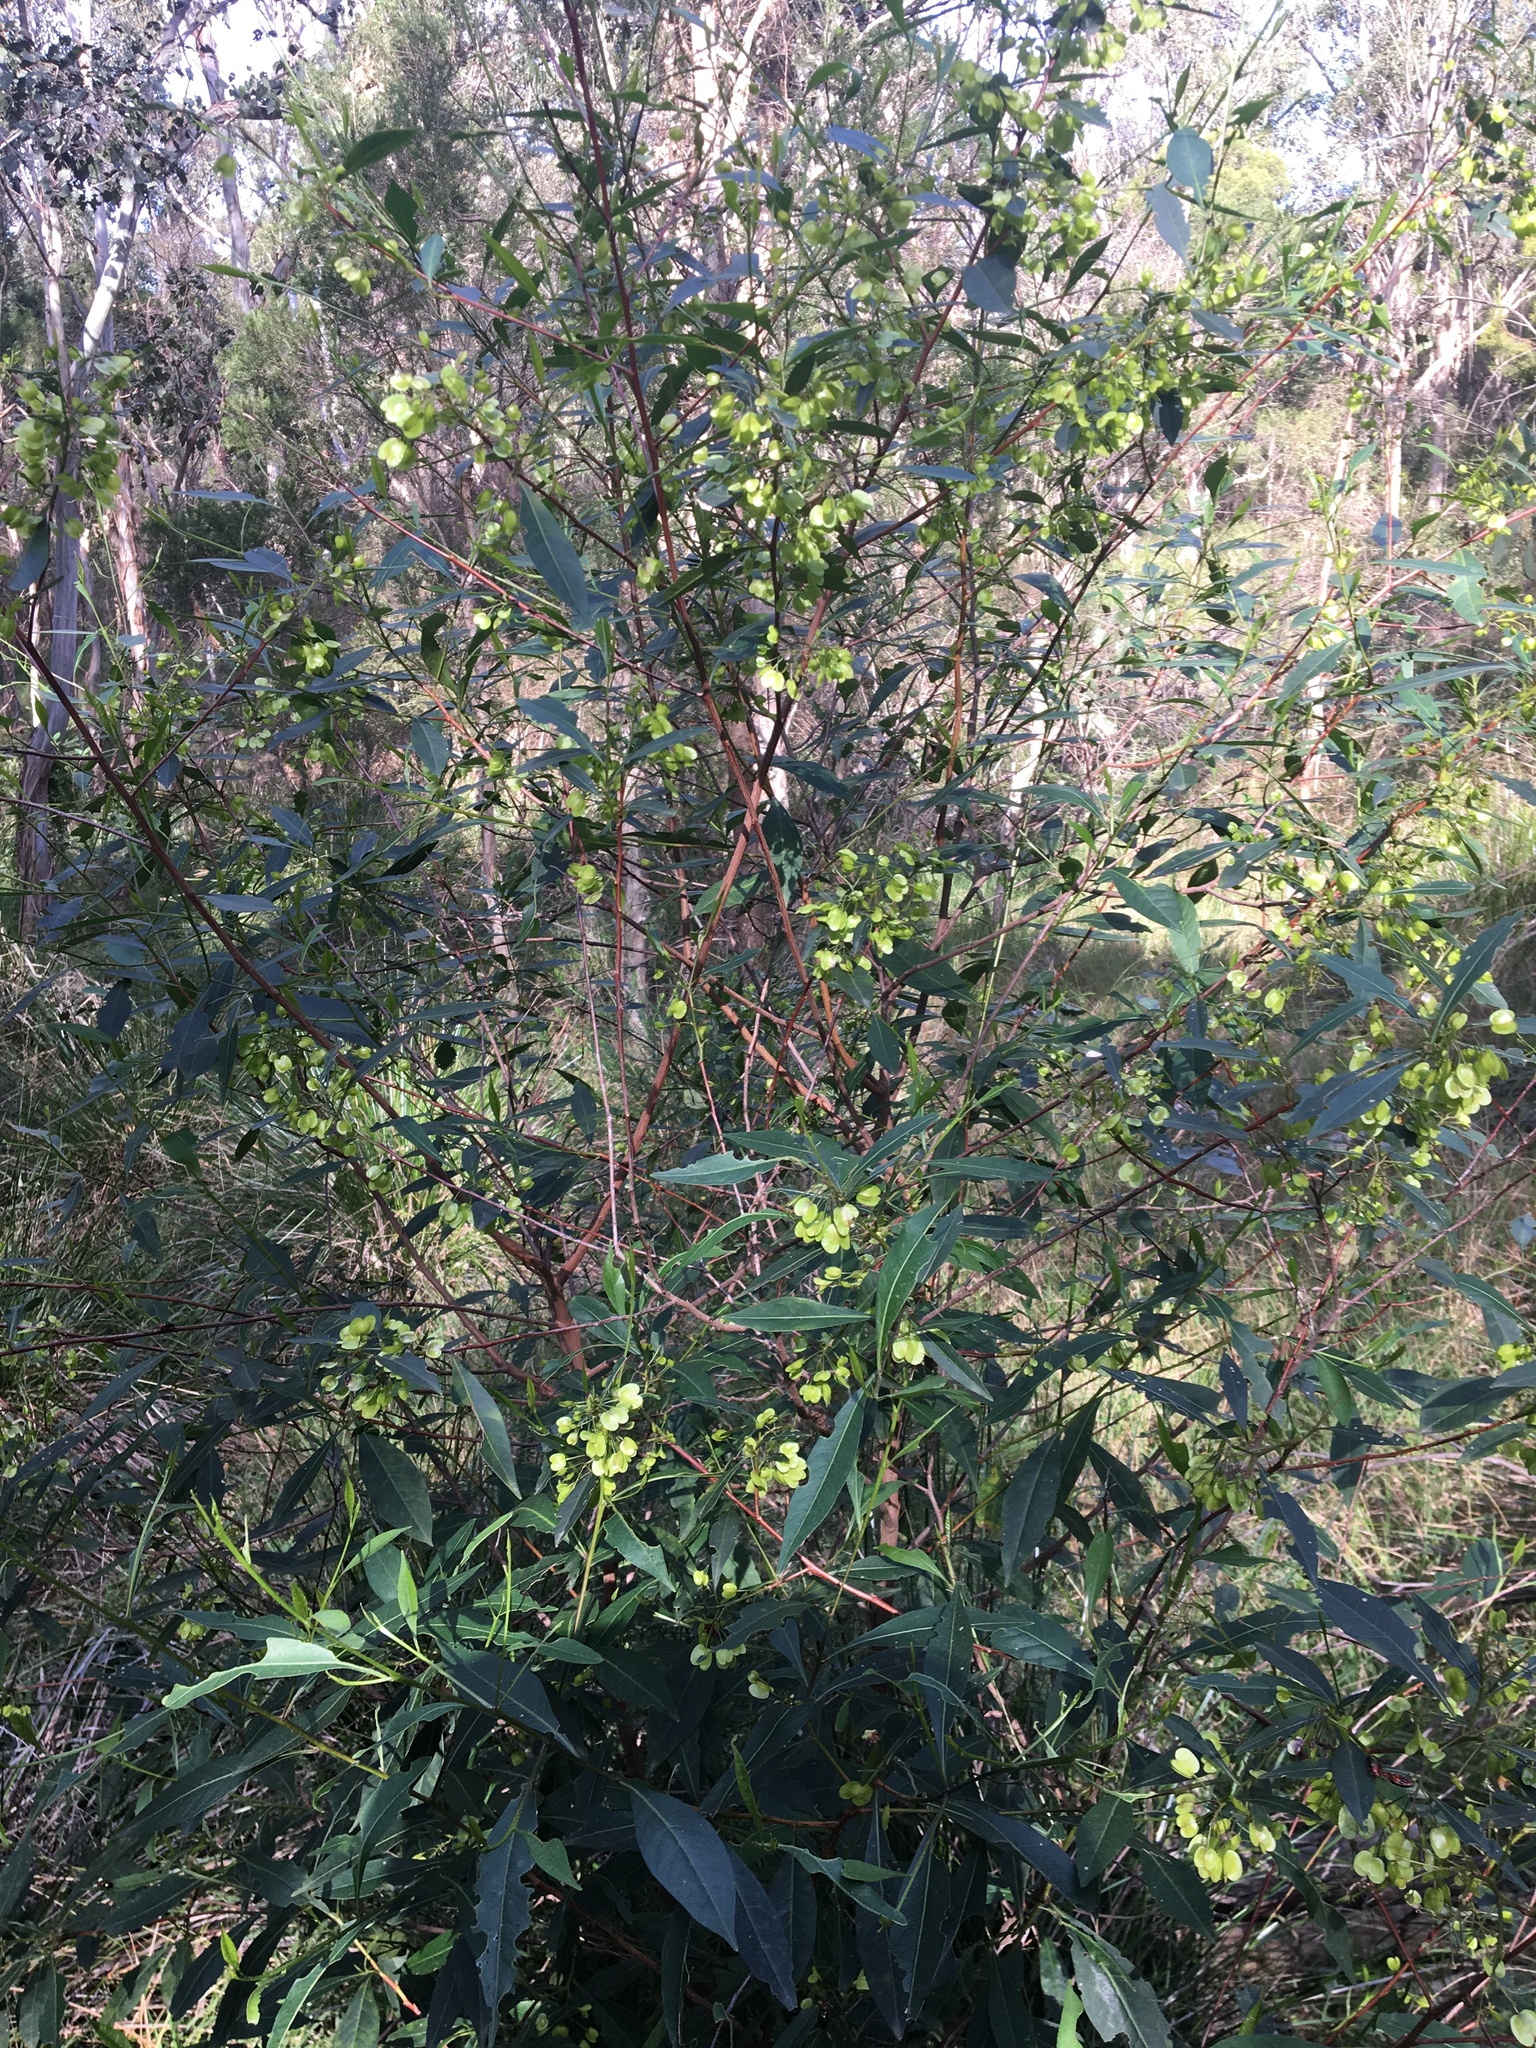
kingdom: Plantae
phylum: Tracheophyta
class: Magnoliopsida
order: Sapindales
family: Sapindaceae
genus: Dodonaea
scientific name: Dodonaea triquetra
